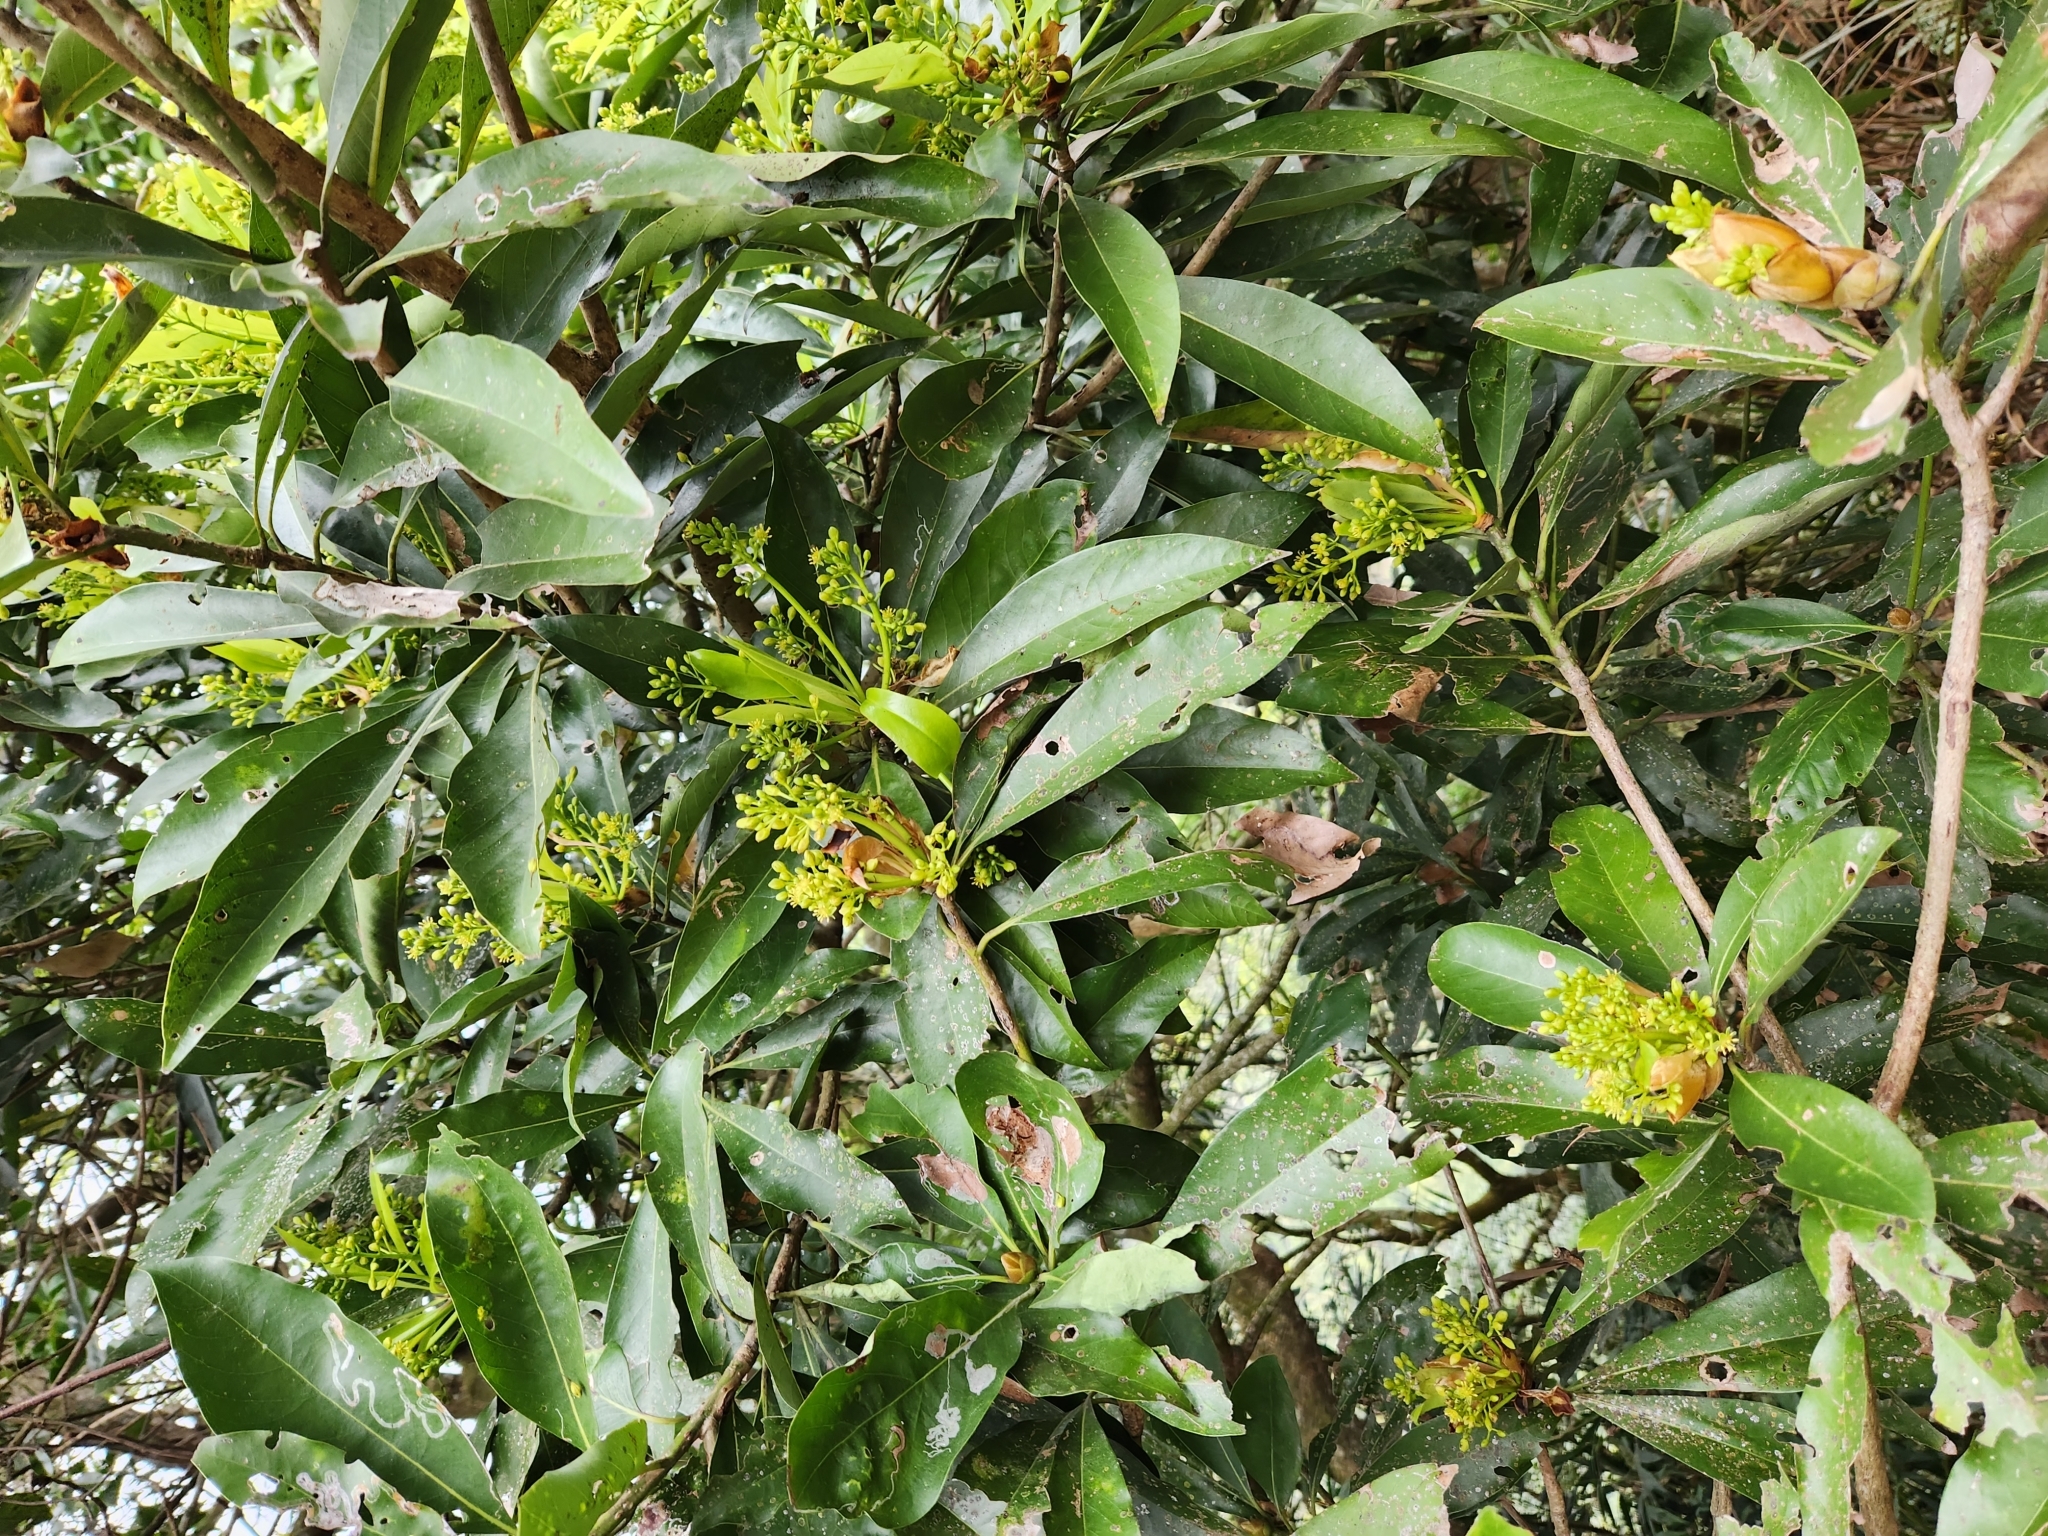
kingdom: Plantae
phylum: Tracheophyta
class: Magnoliopsida
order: Laurales
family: Lauraceae
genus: Machilus
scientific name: Machilus japonica
